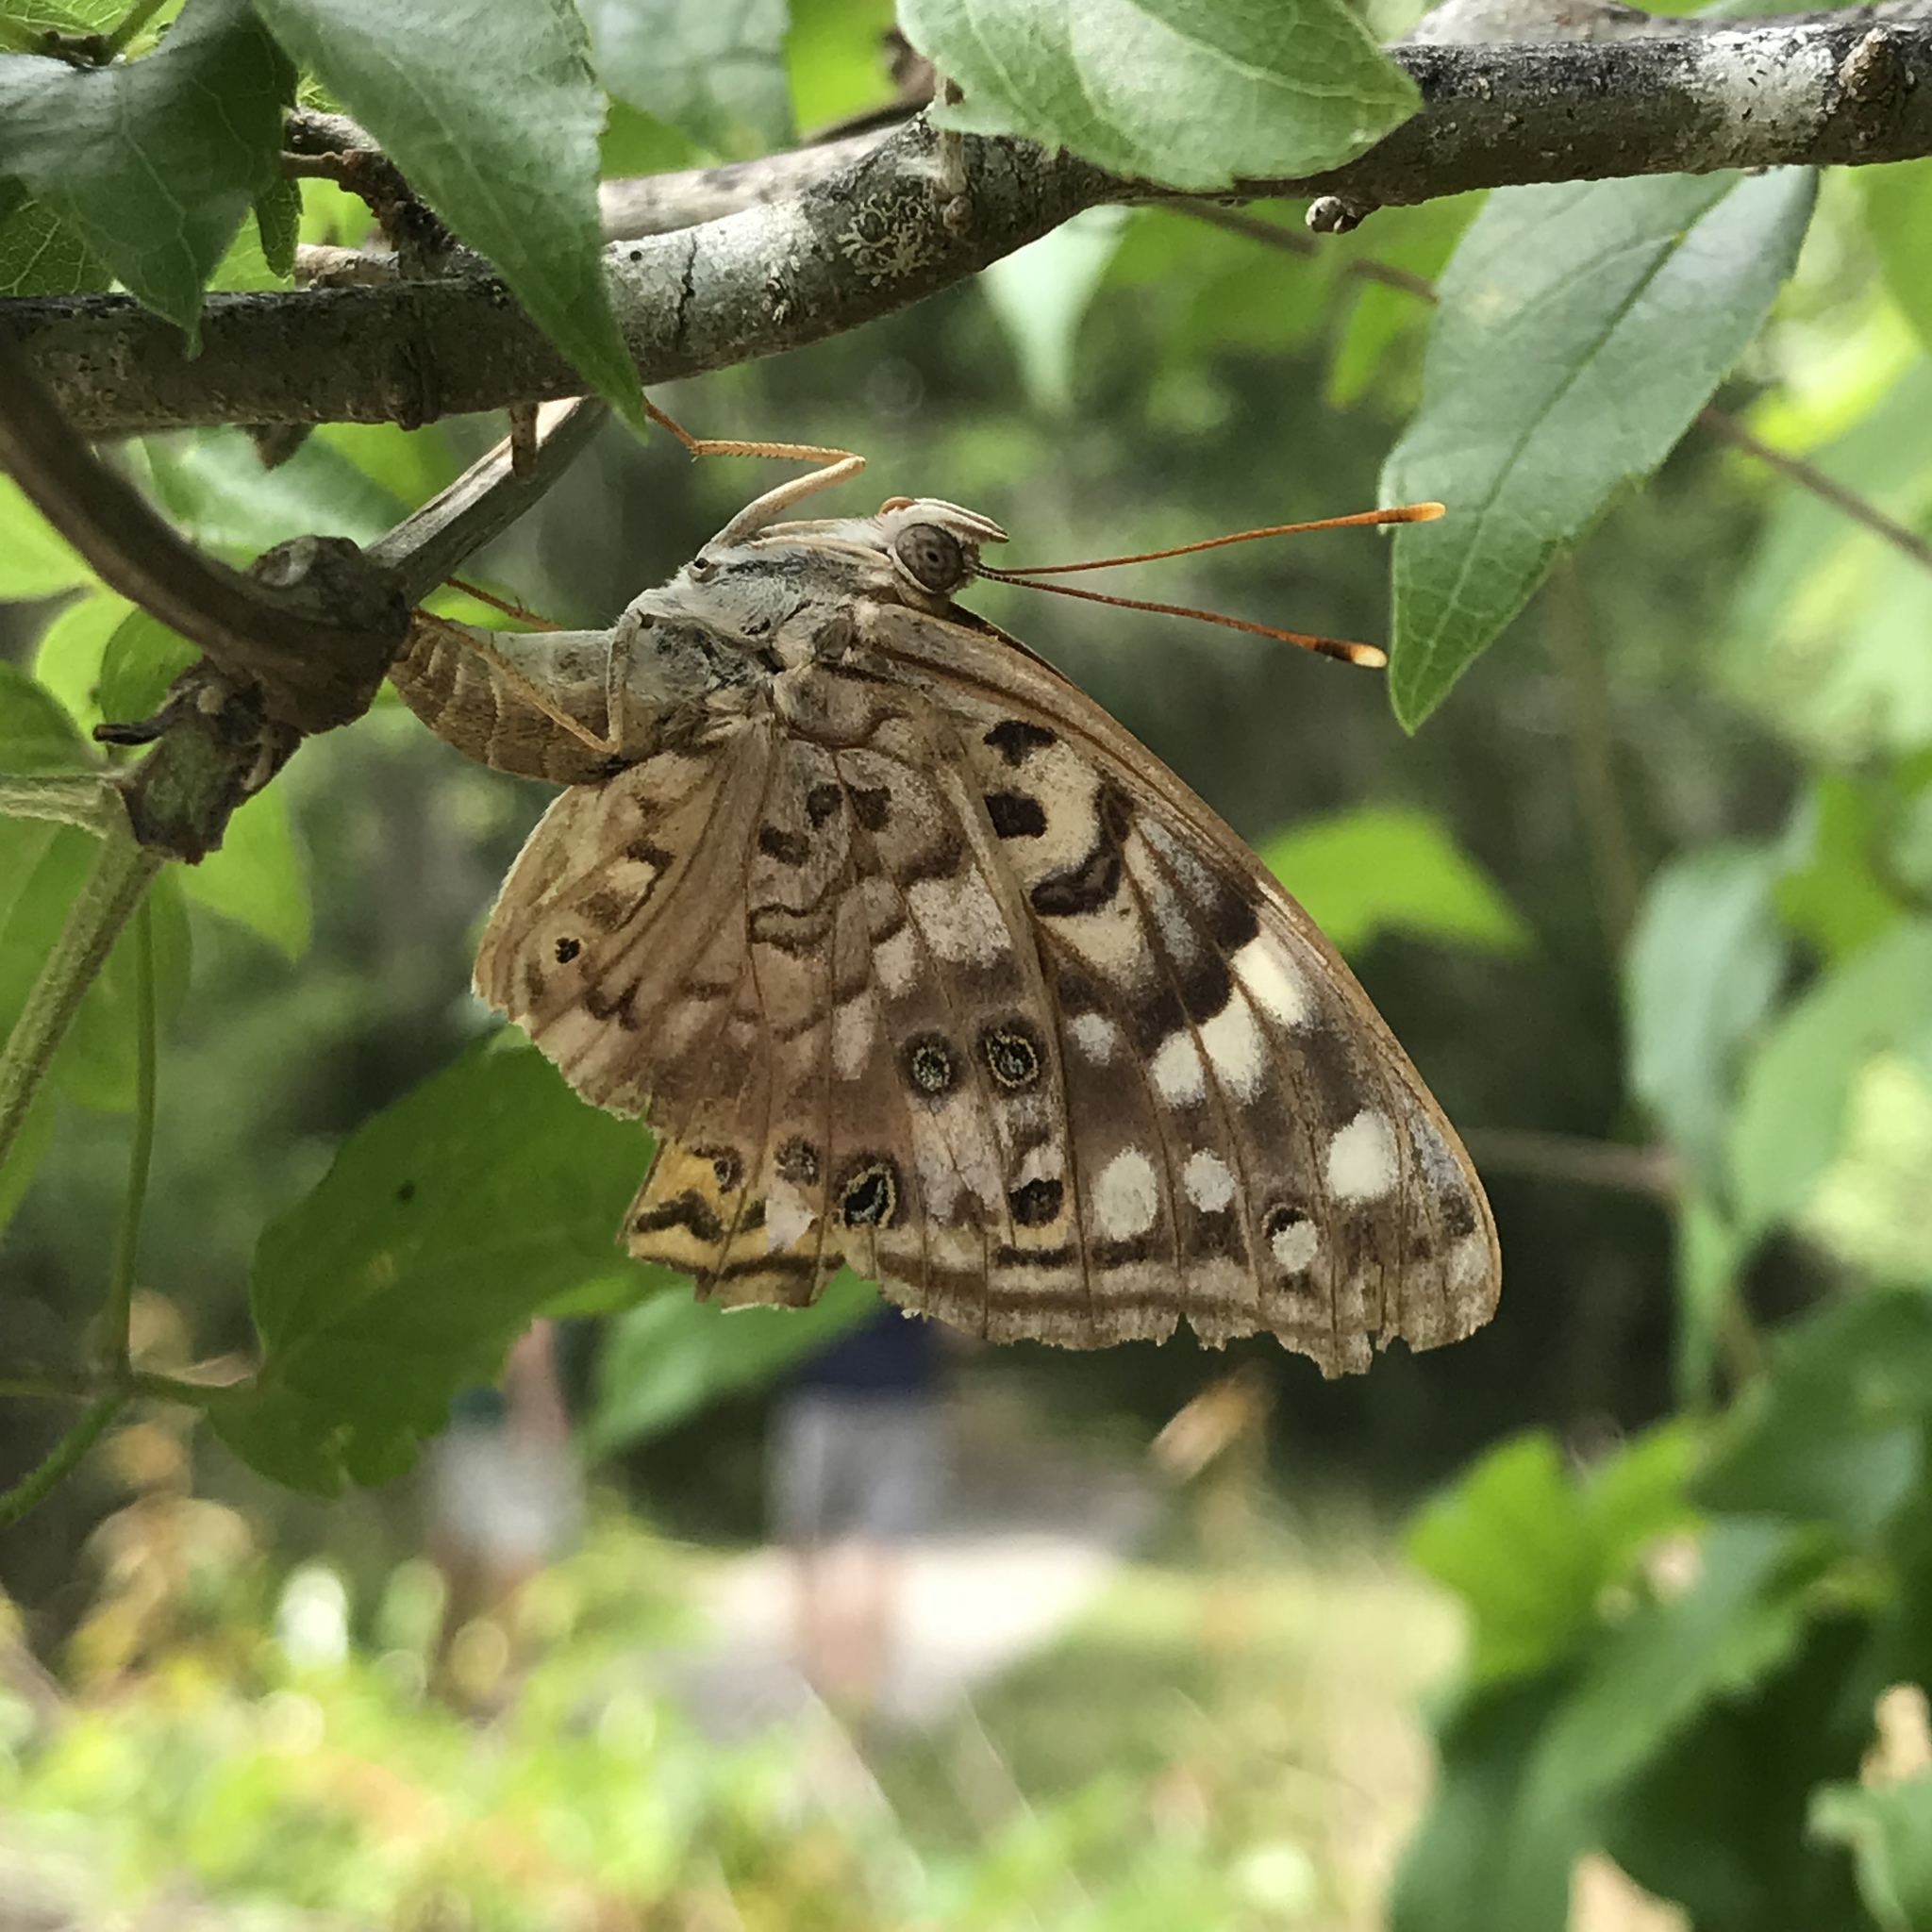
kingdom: Animalia
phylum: Arthropoda
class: Insecta
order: Lepidoptera
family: Nymphalidae
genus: Asterocampa
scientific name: Asterocampa celtis
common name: Hackberry emperor
